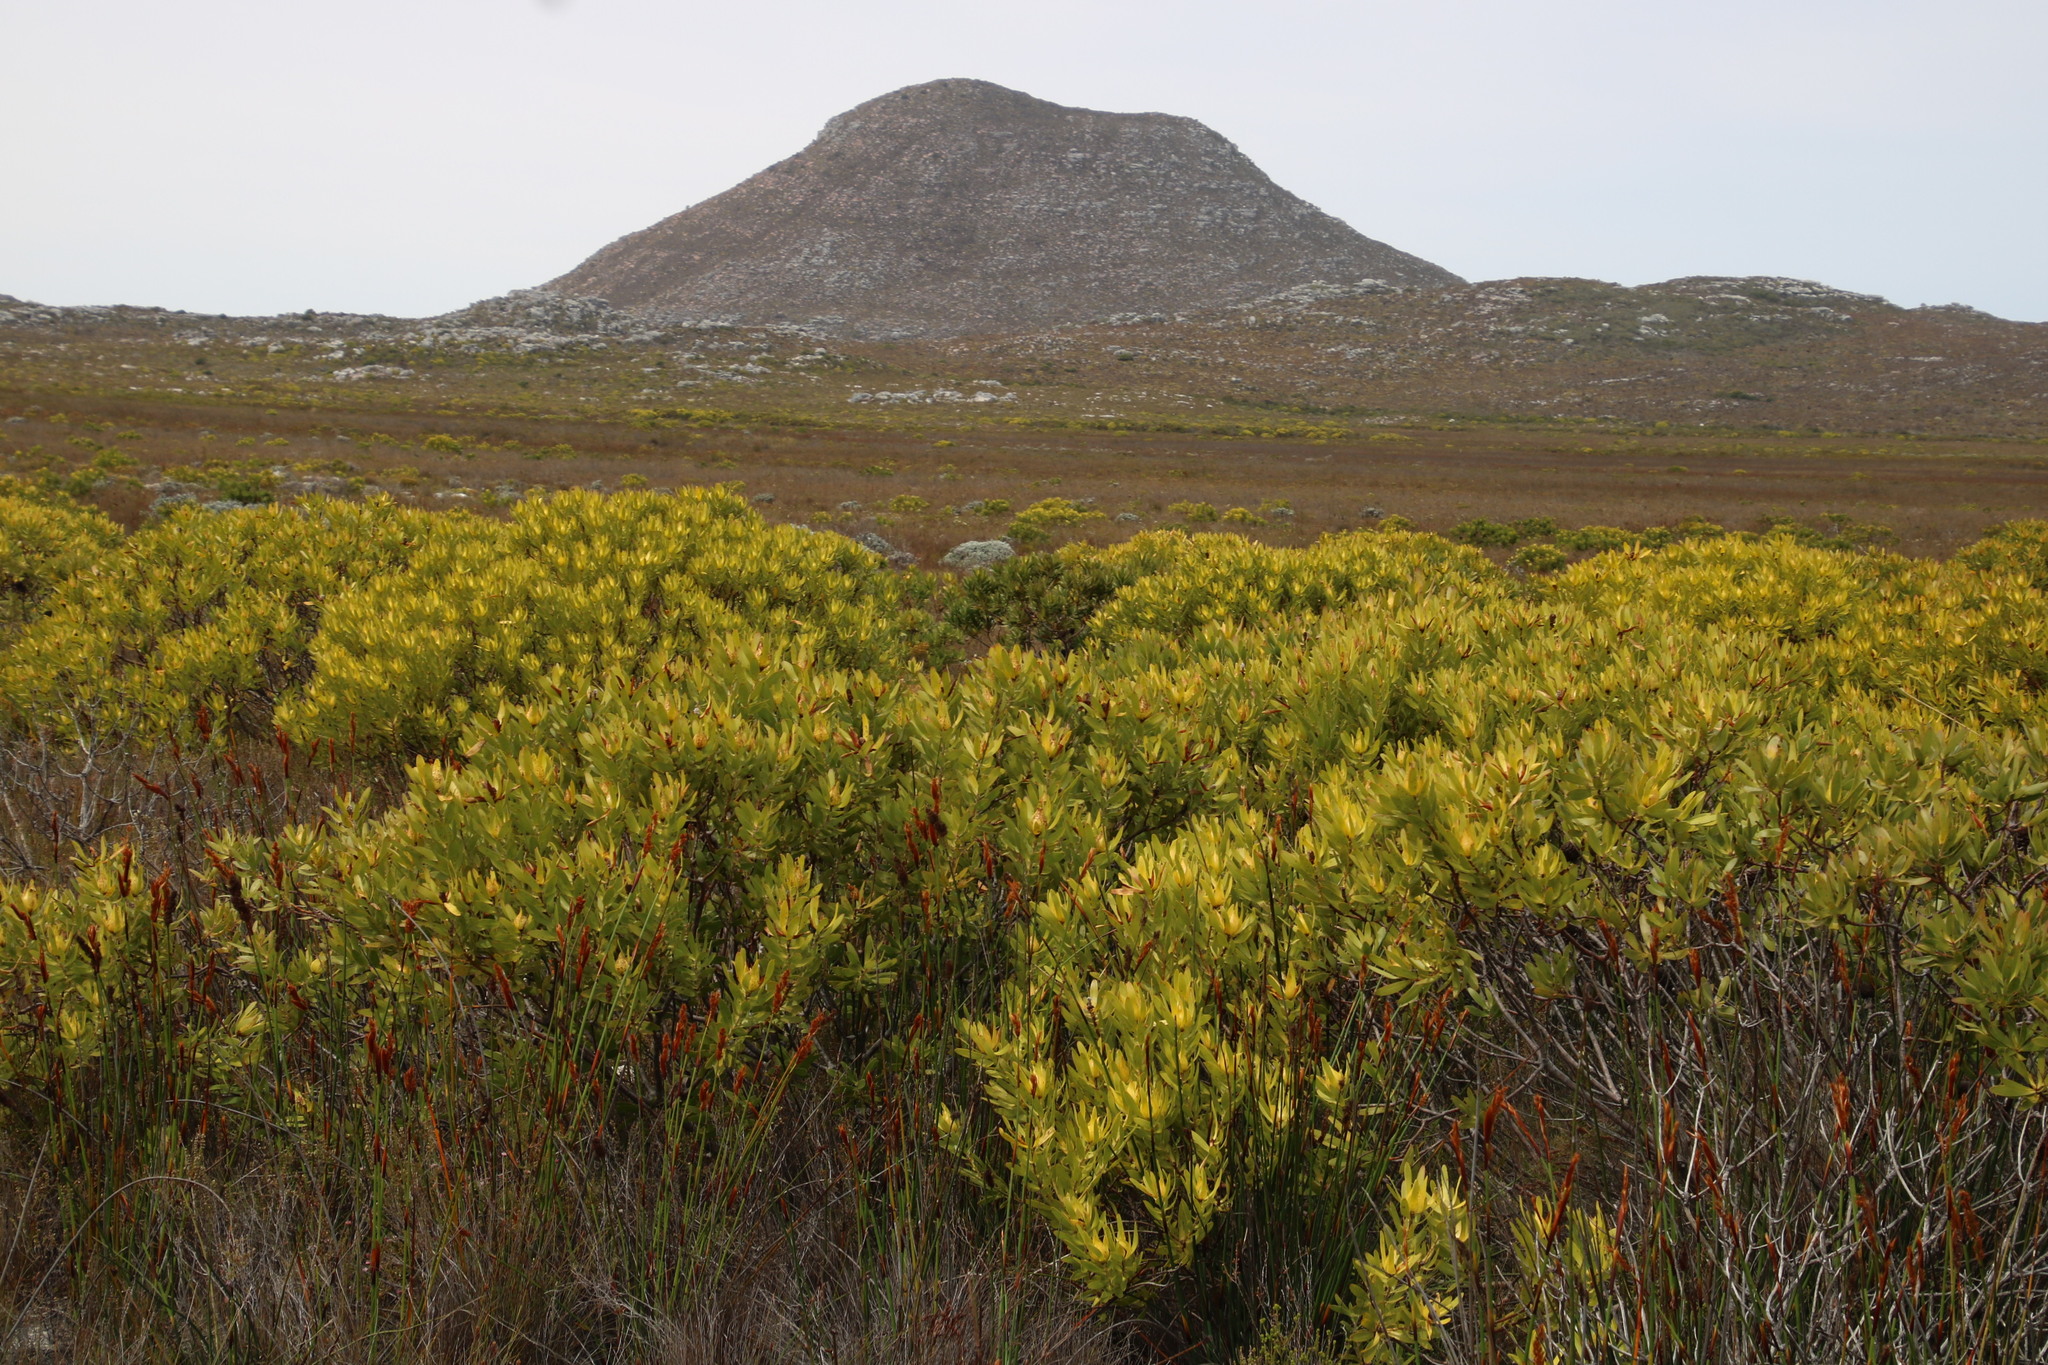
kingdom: Plantae
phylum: Tracheophyta
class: Magnoliopsida
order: Proteales
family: Proteaceae
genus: Leucadendron
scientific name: Leucadendron laureolum
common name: Golden sunshinebush
